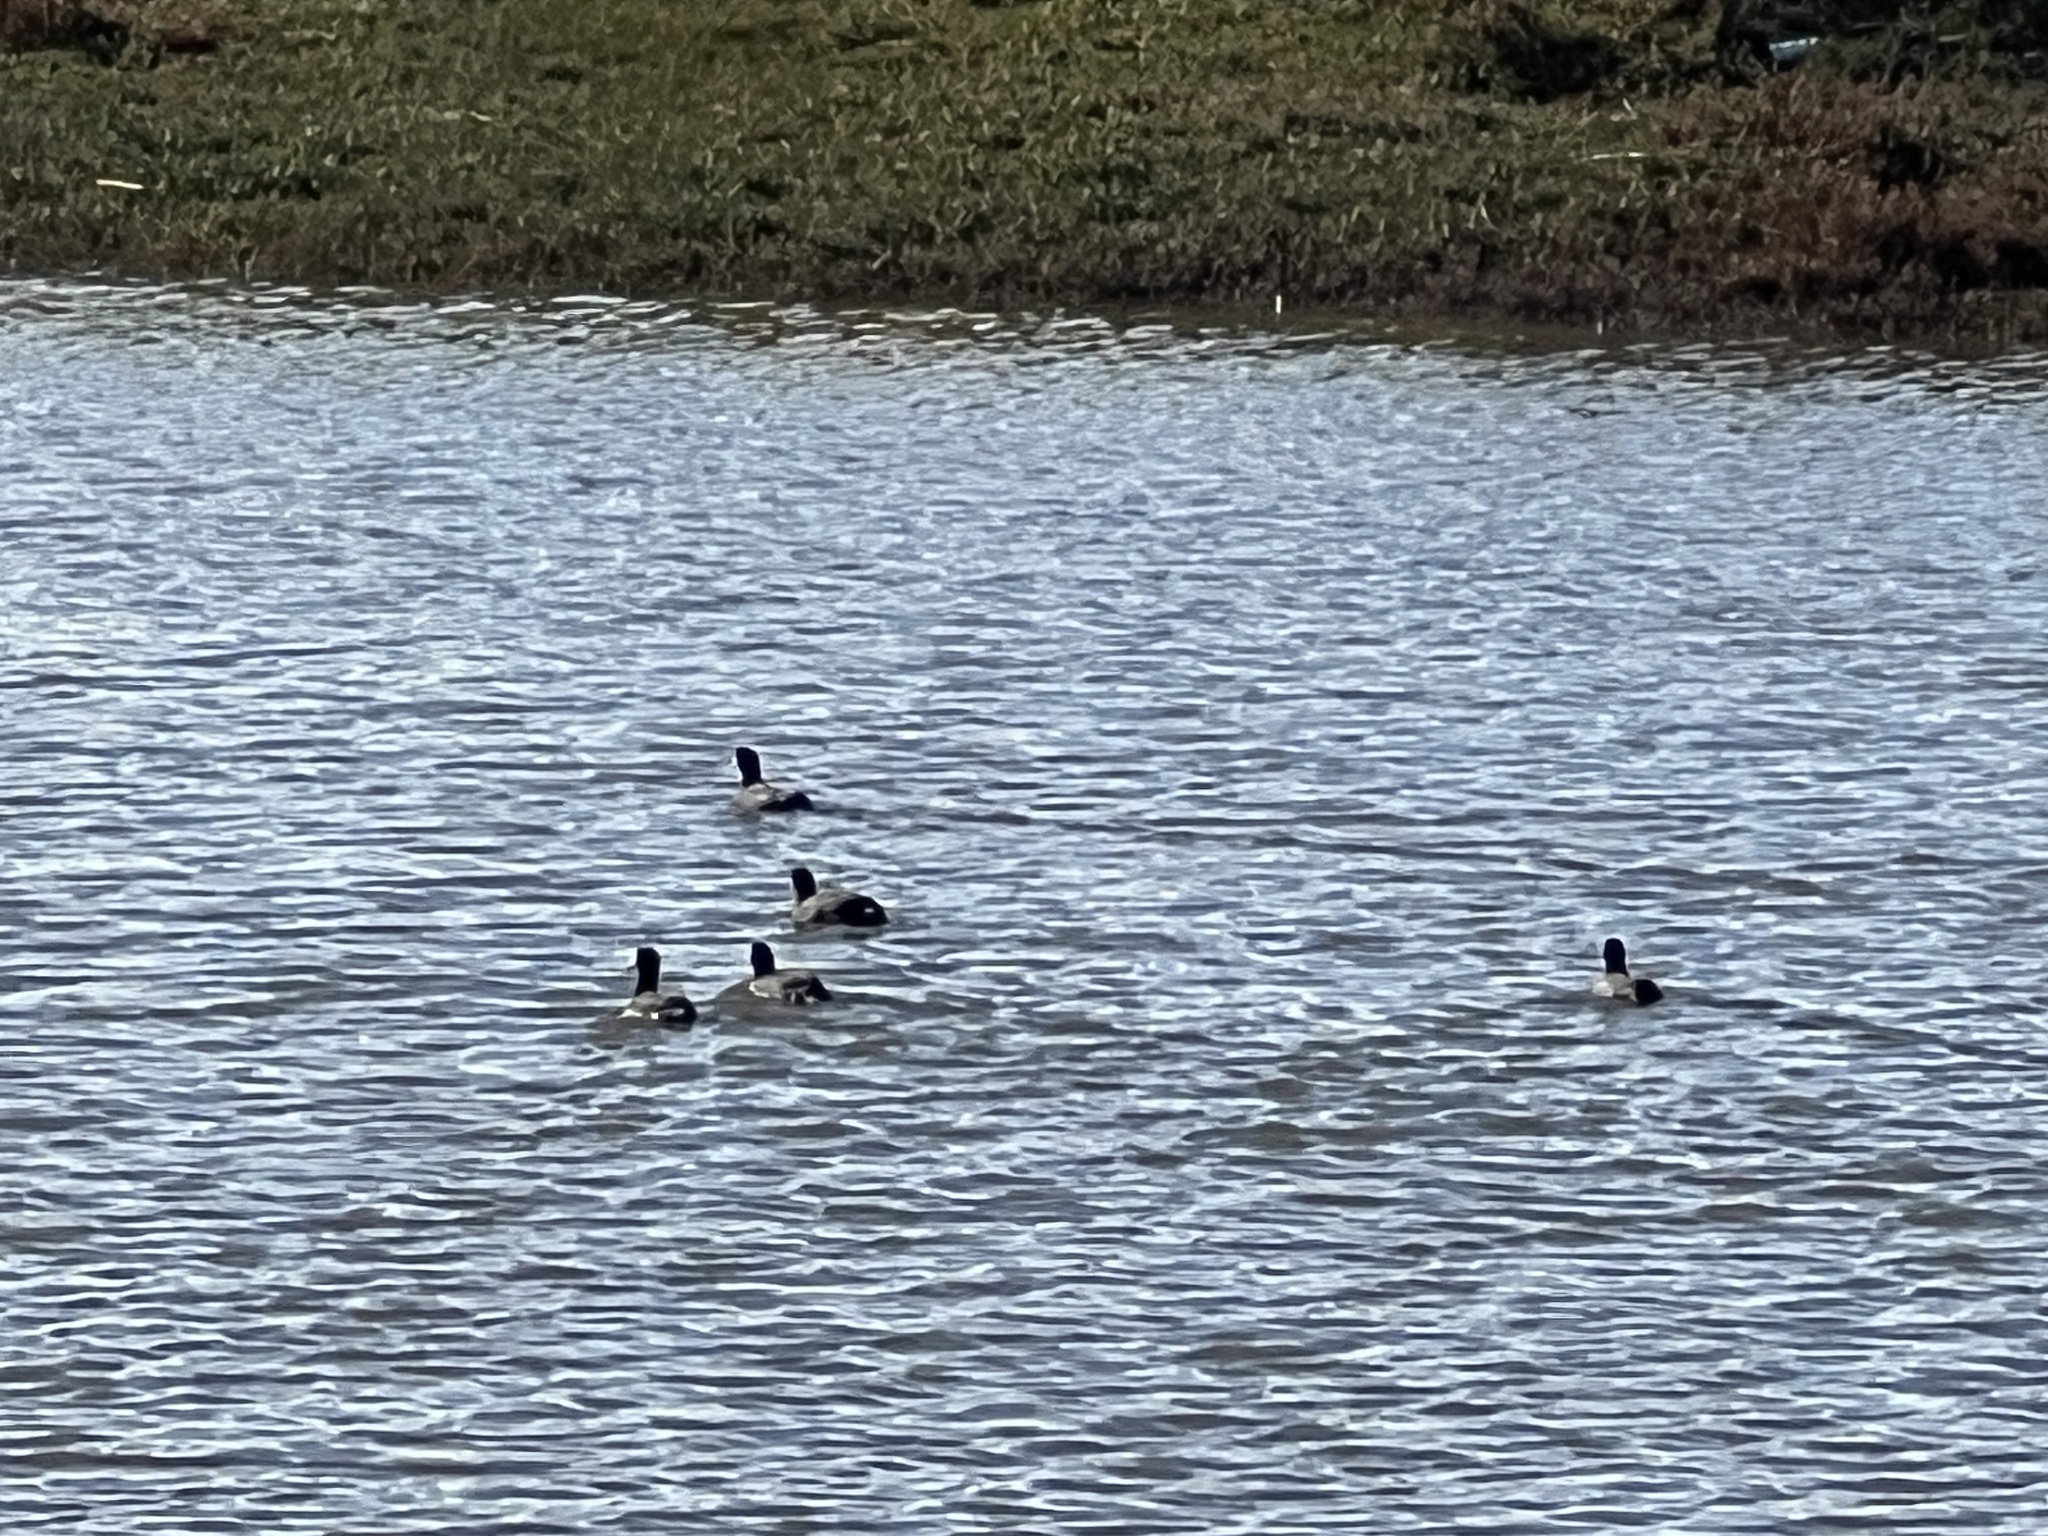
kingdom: Animalia
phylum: Chordata
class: Aves
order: Gruiformes
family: Rallidae
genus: Fulica
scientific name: Fulica americana
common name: American coot
